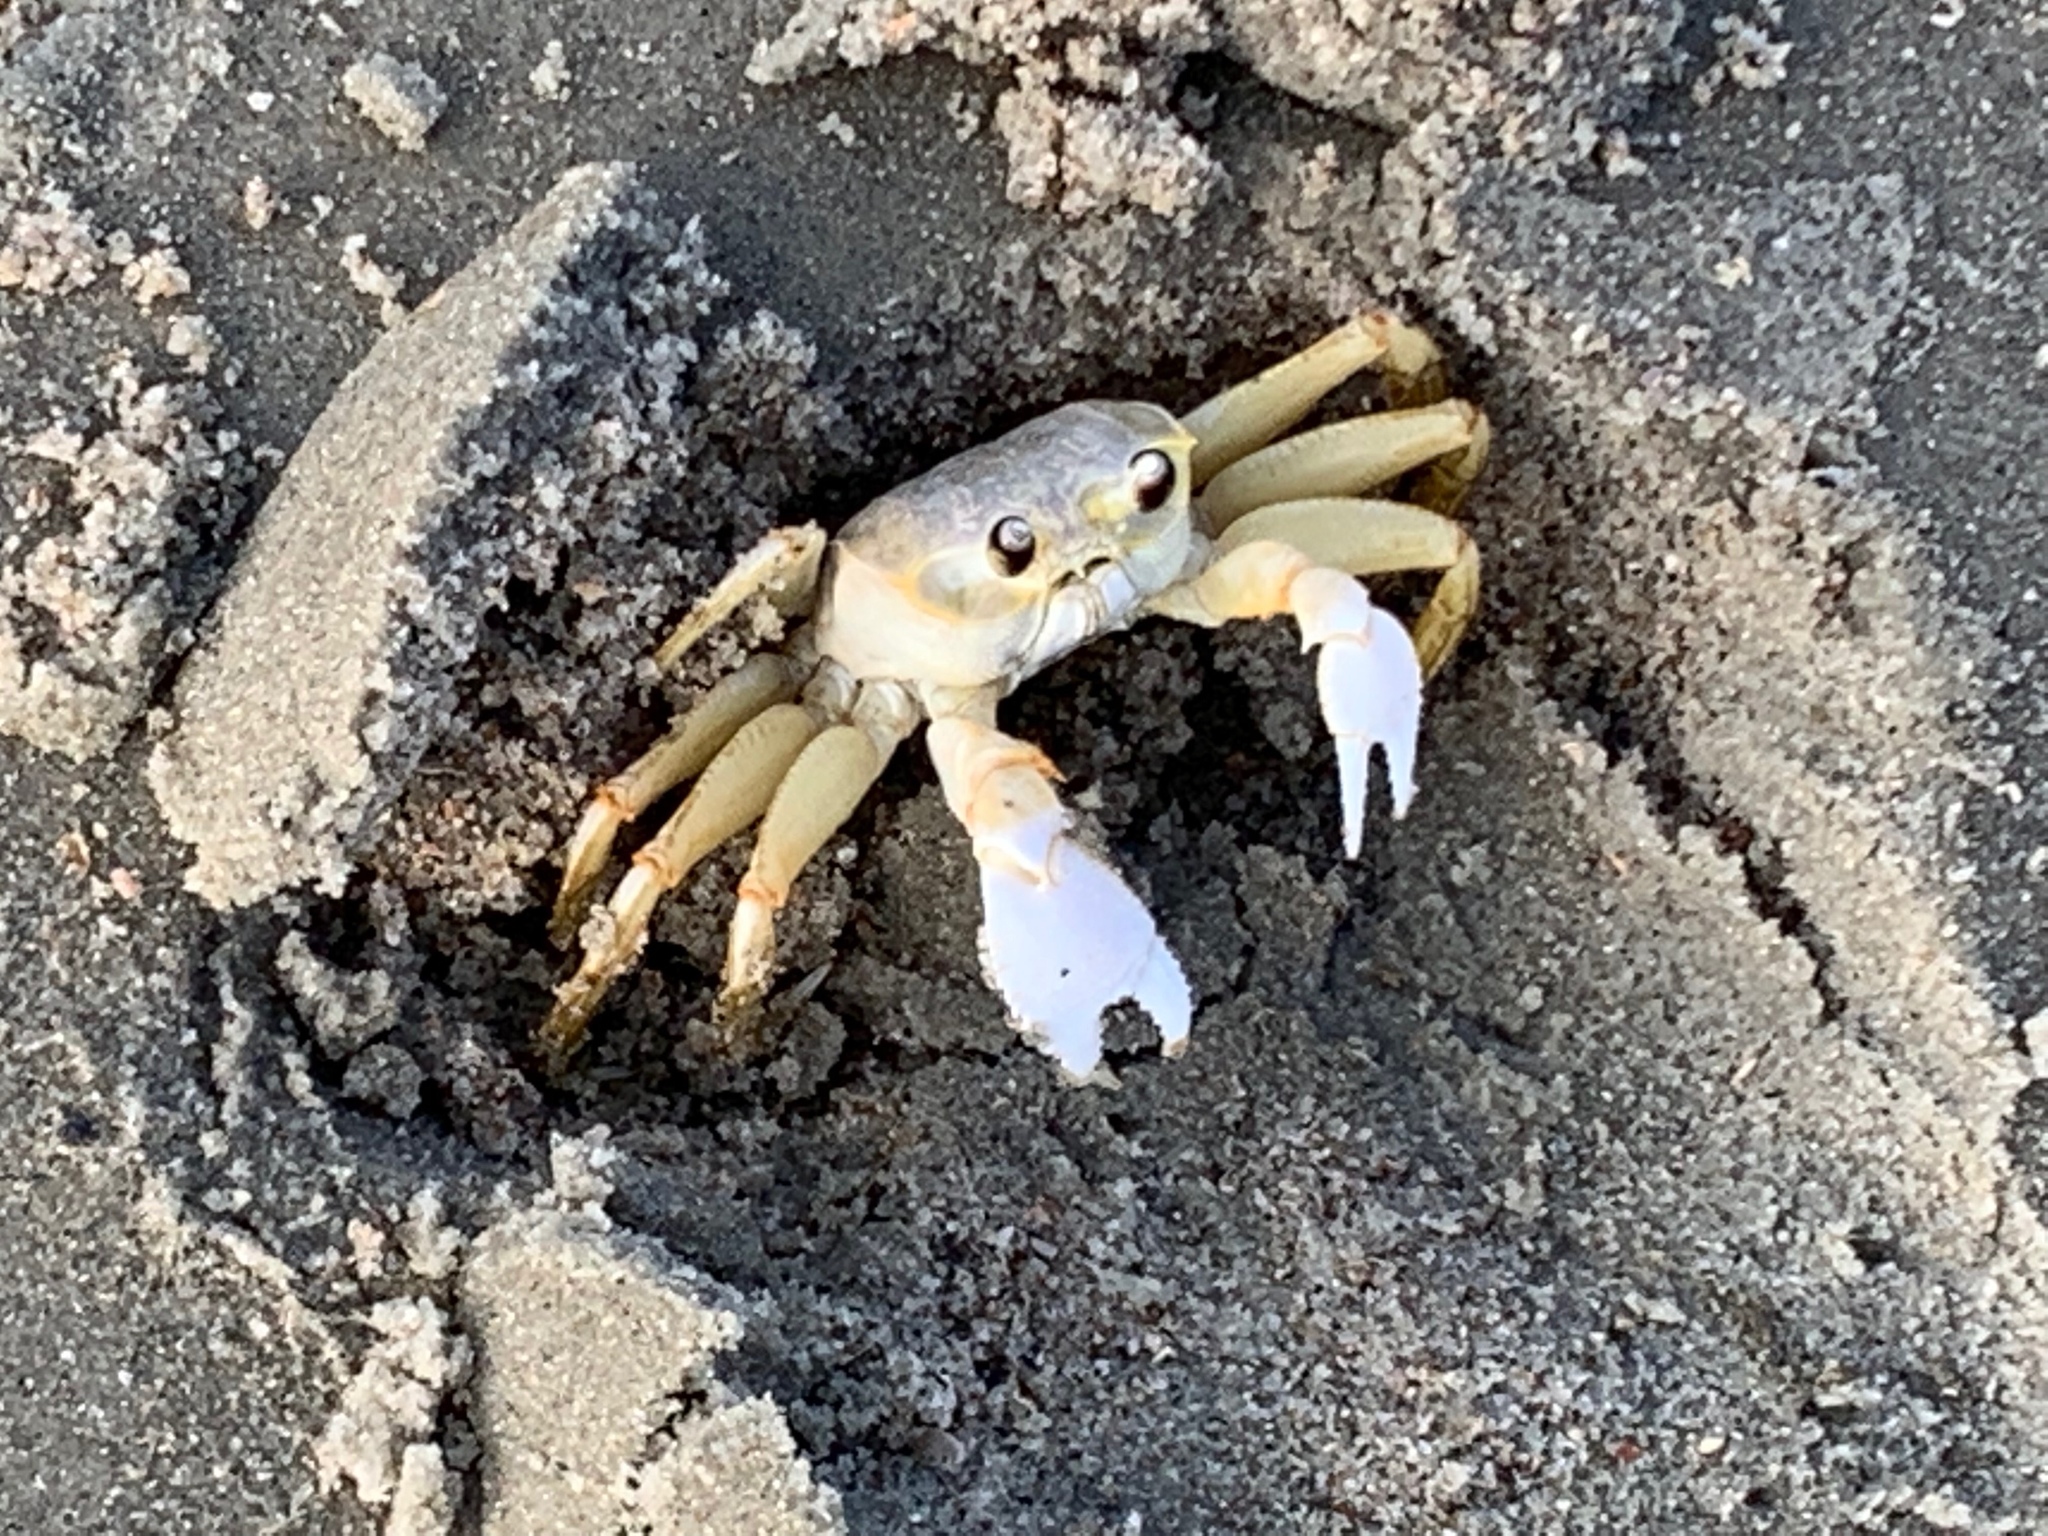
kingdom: Animalia
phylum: Arthropoda
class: Malacostraca
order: Decapoda
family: Ocypodidae
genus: Ocypode
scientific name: Ocypode quadrata
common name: Ghost crab
